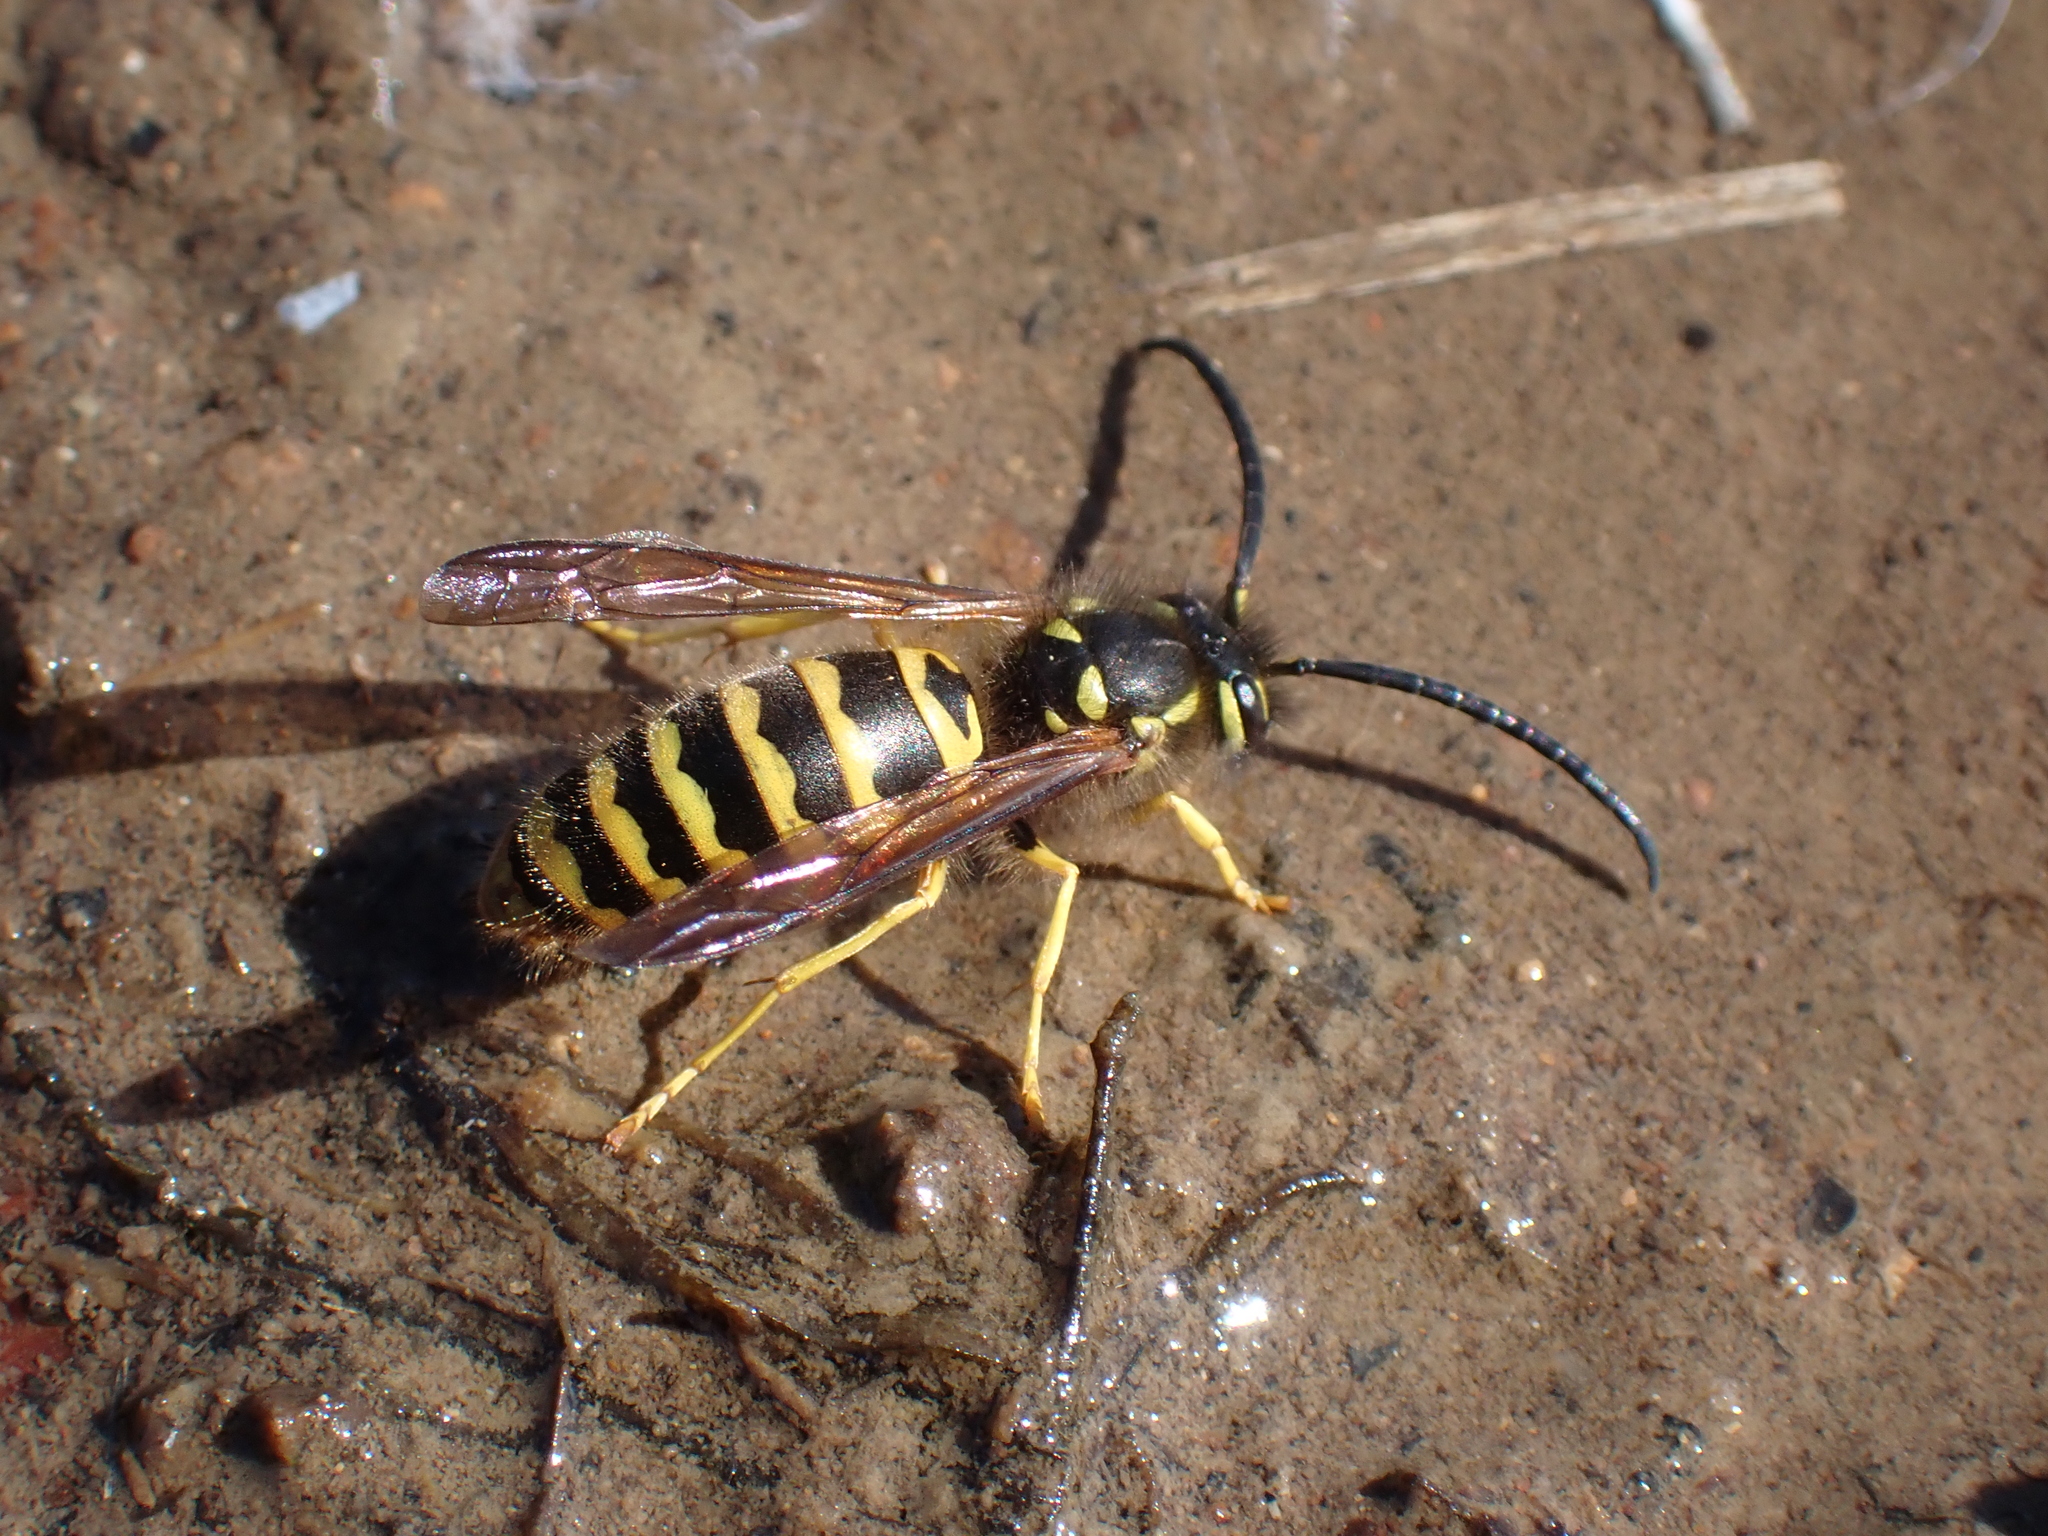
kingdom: Animalia
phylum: Arthropoda
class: Insecta
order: Hymenoptera
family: Vespidae
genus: Vespula
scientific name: Vespula maculifrons
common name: Eastern yellowjacket
